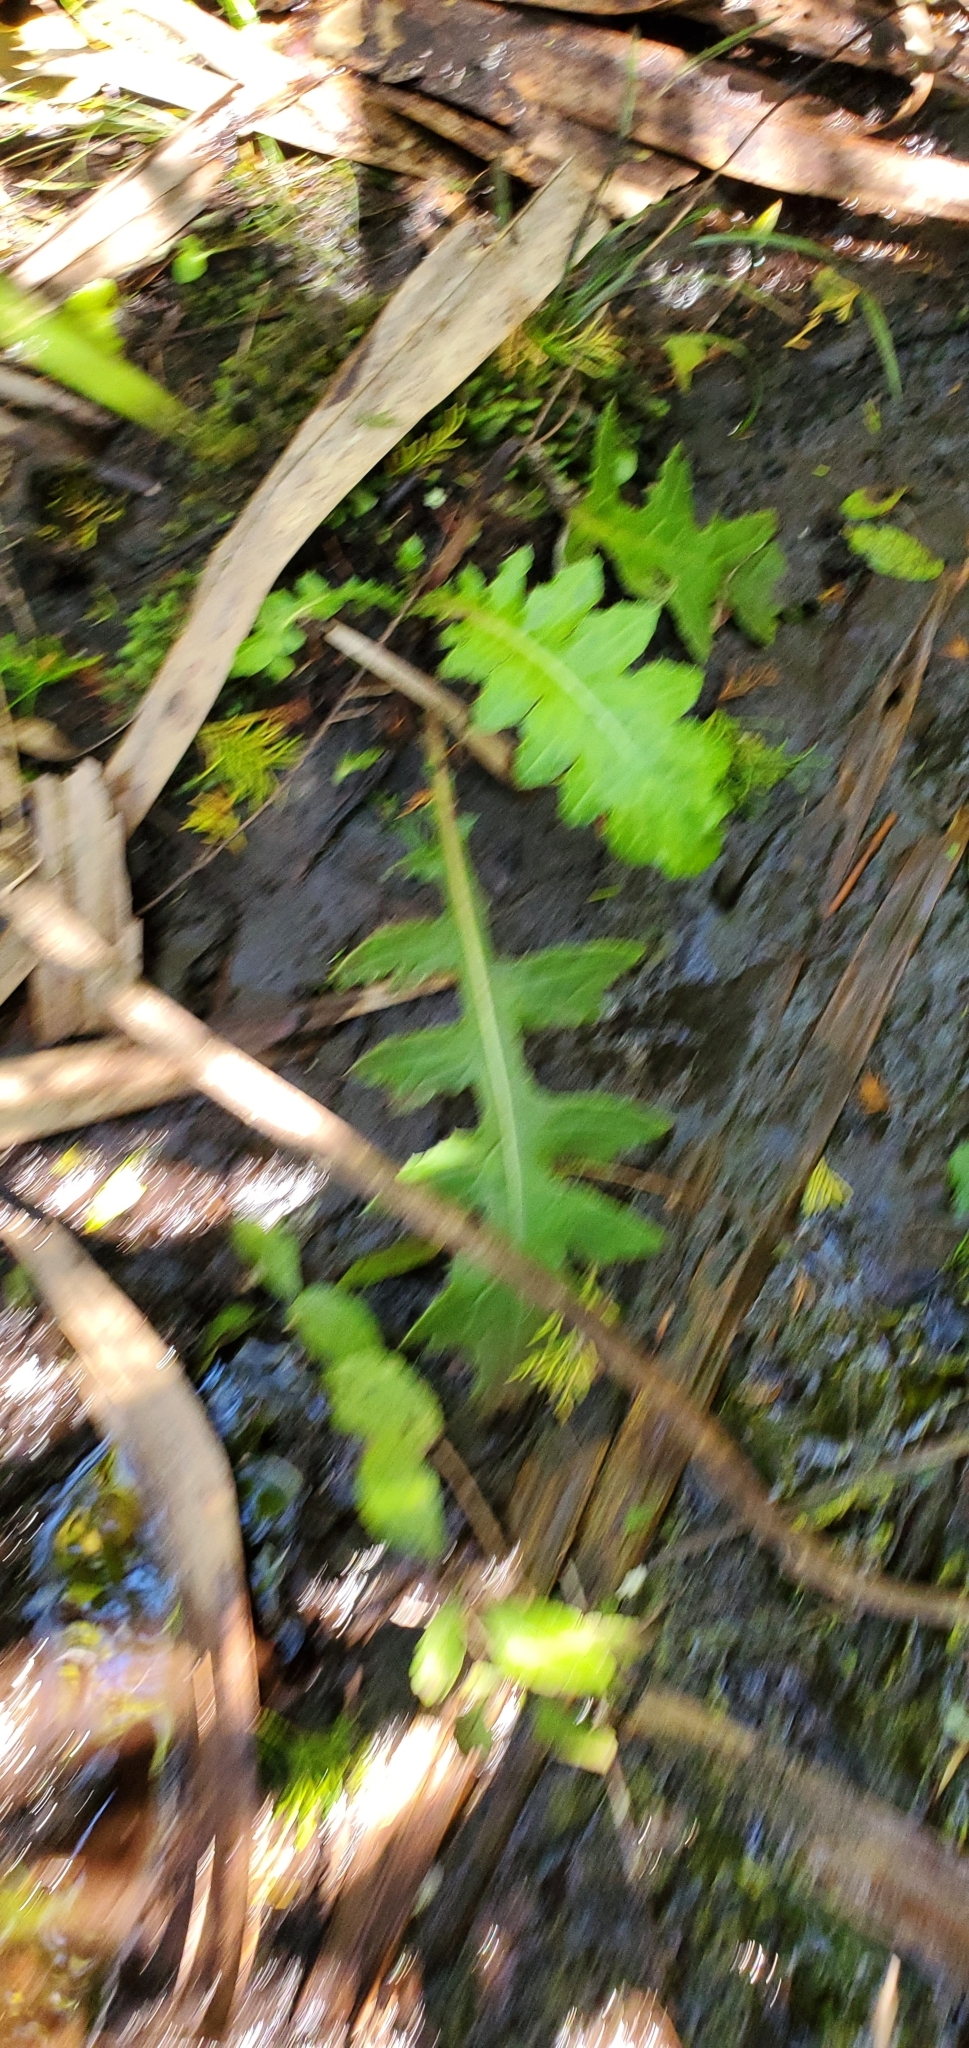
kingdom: Plantae
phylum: Tracheophyta
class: Magnoliopsida
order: Asterales
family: Asteraceae
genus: Cirsium
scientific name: Cirsium muticum
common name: Dunce-nettle
